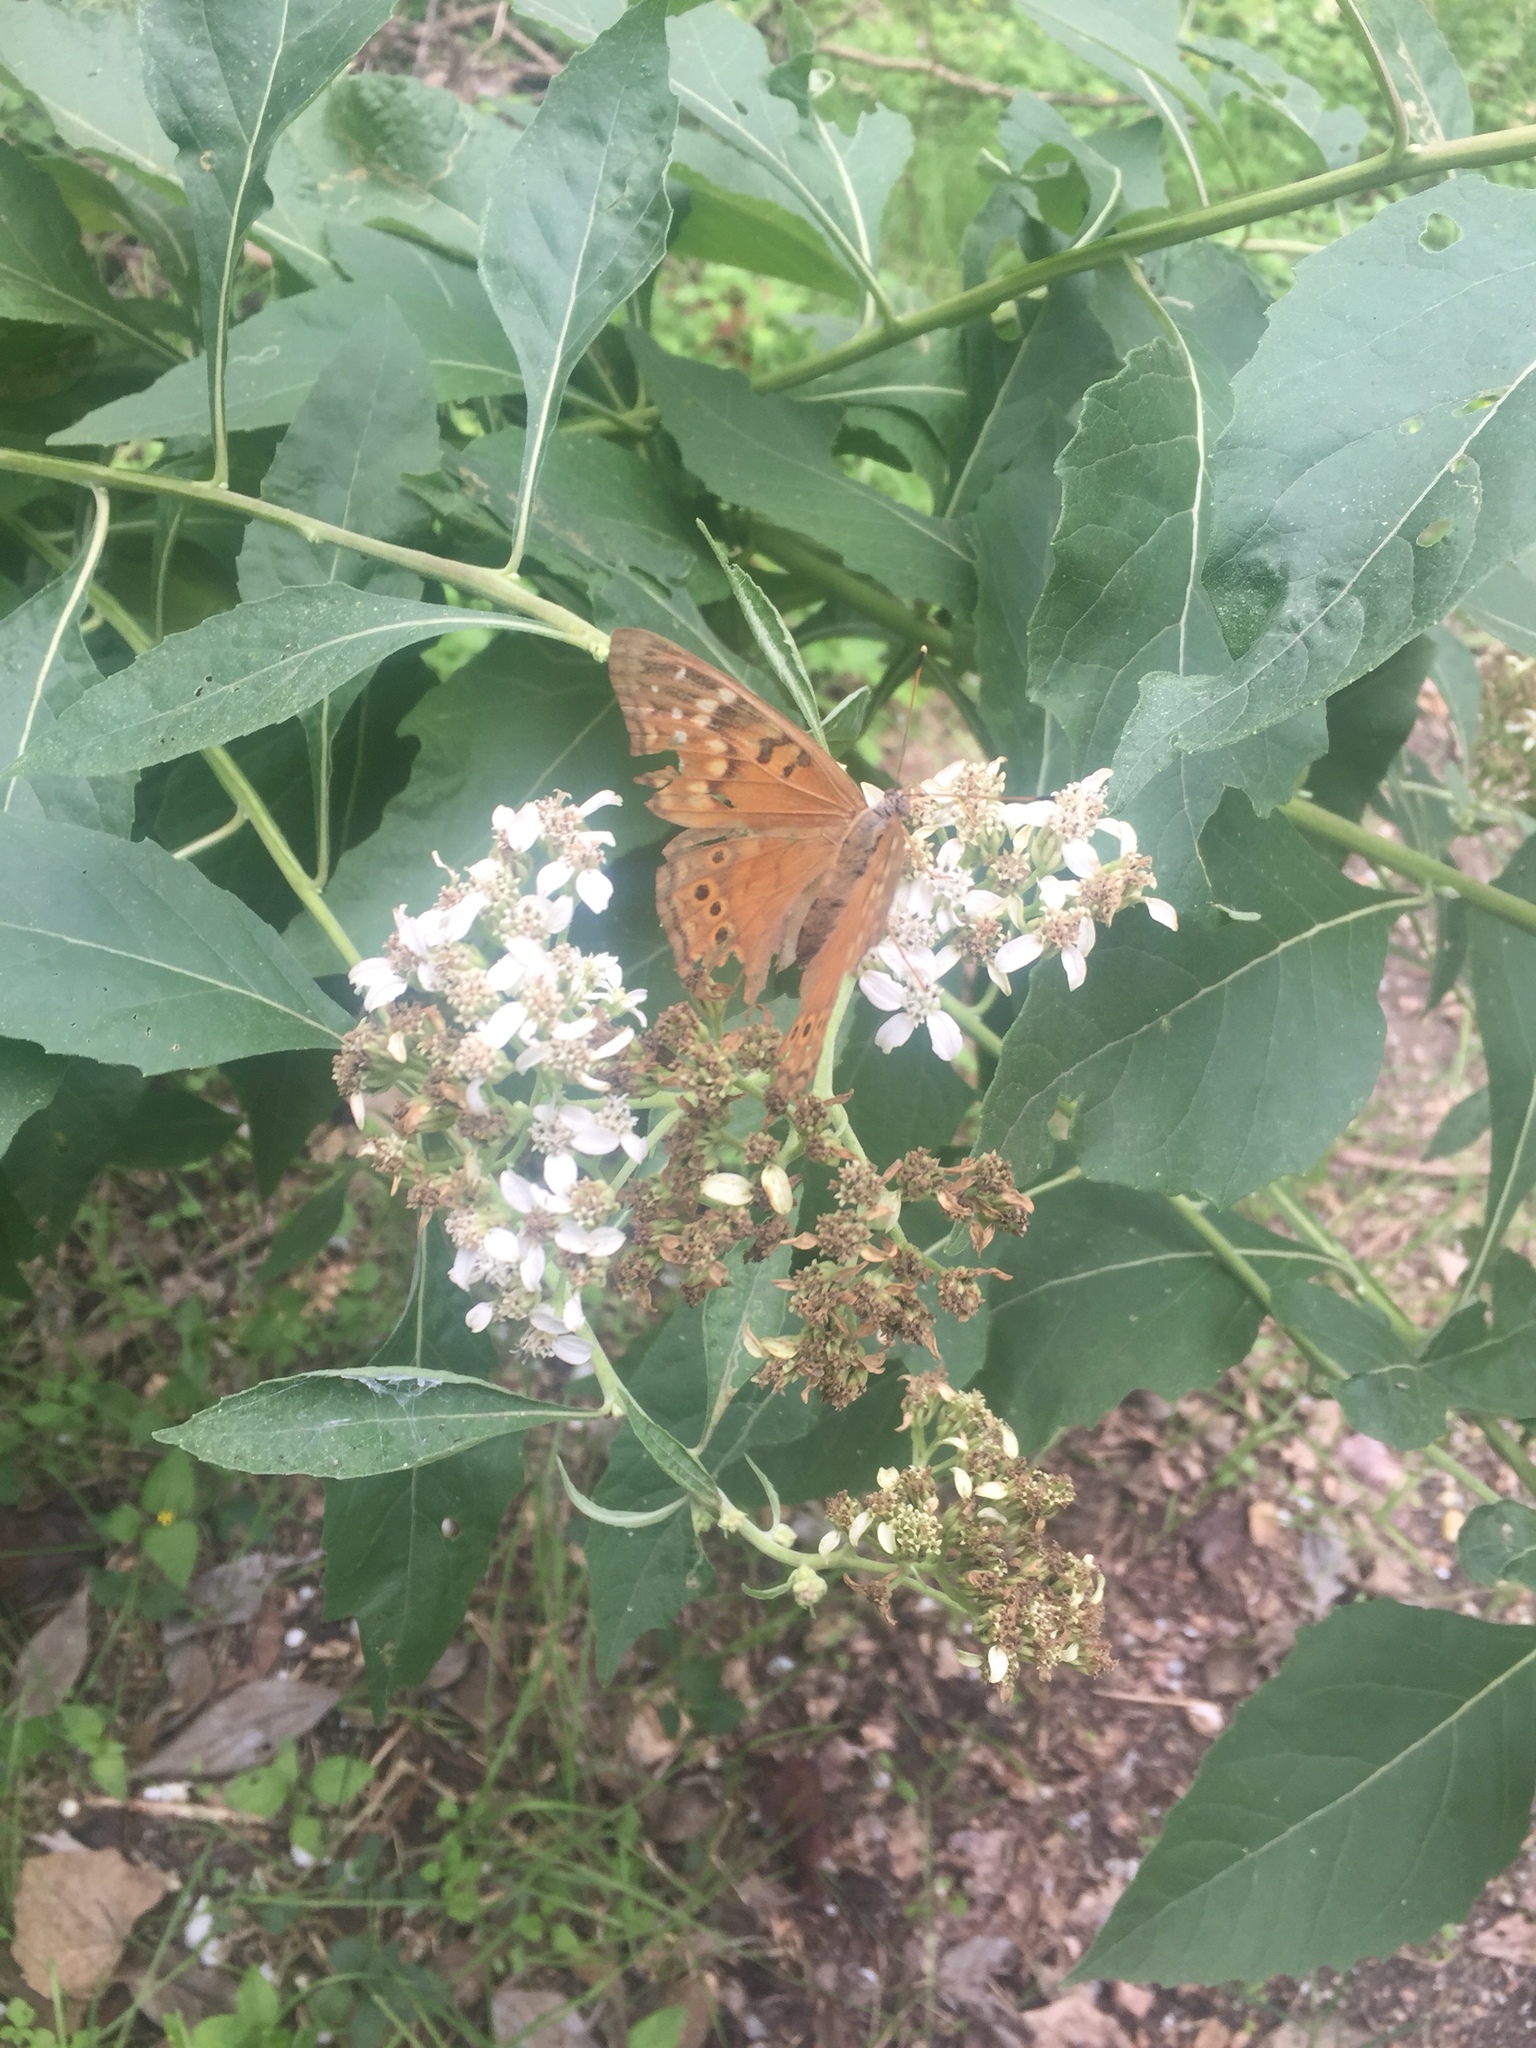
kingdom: Animalia
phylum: Arthropoda
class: Insecta
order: Lepidoptera
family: Nymphalidae
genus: Asterocampa
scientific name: Asterocampa clyton
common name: Tawny emperor
